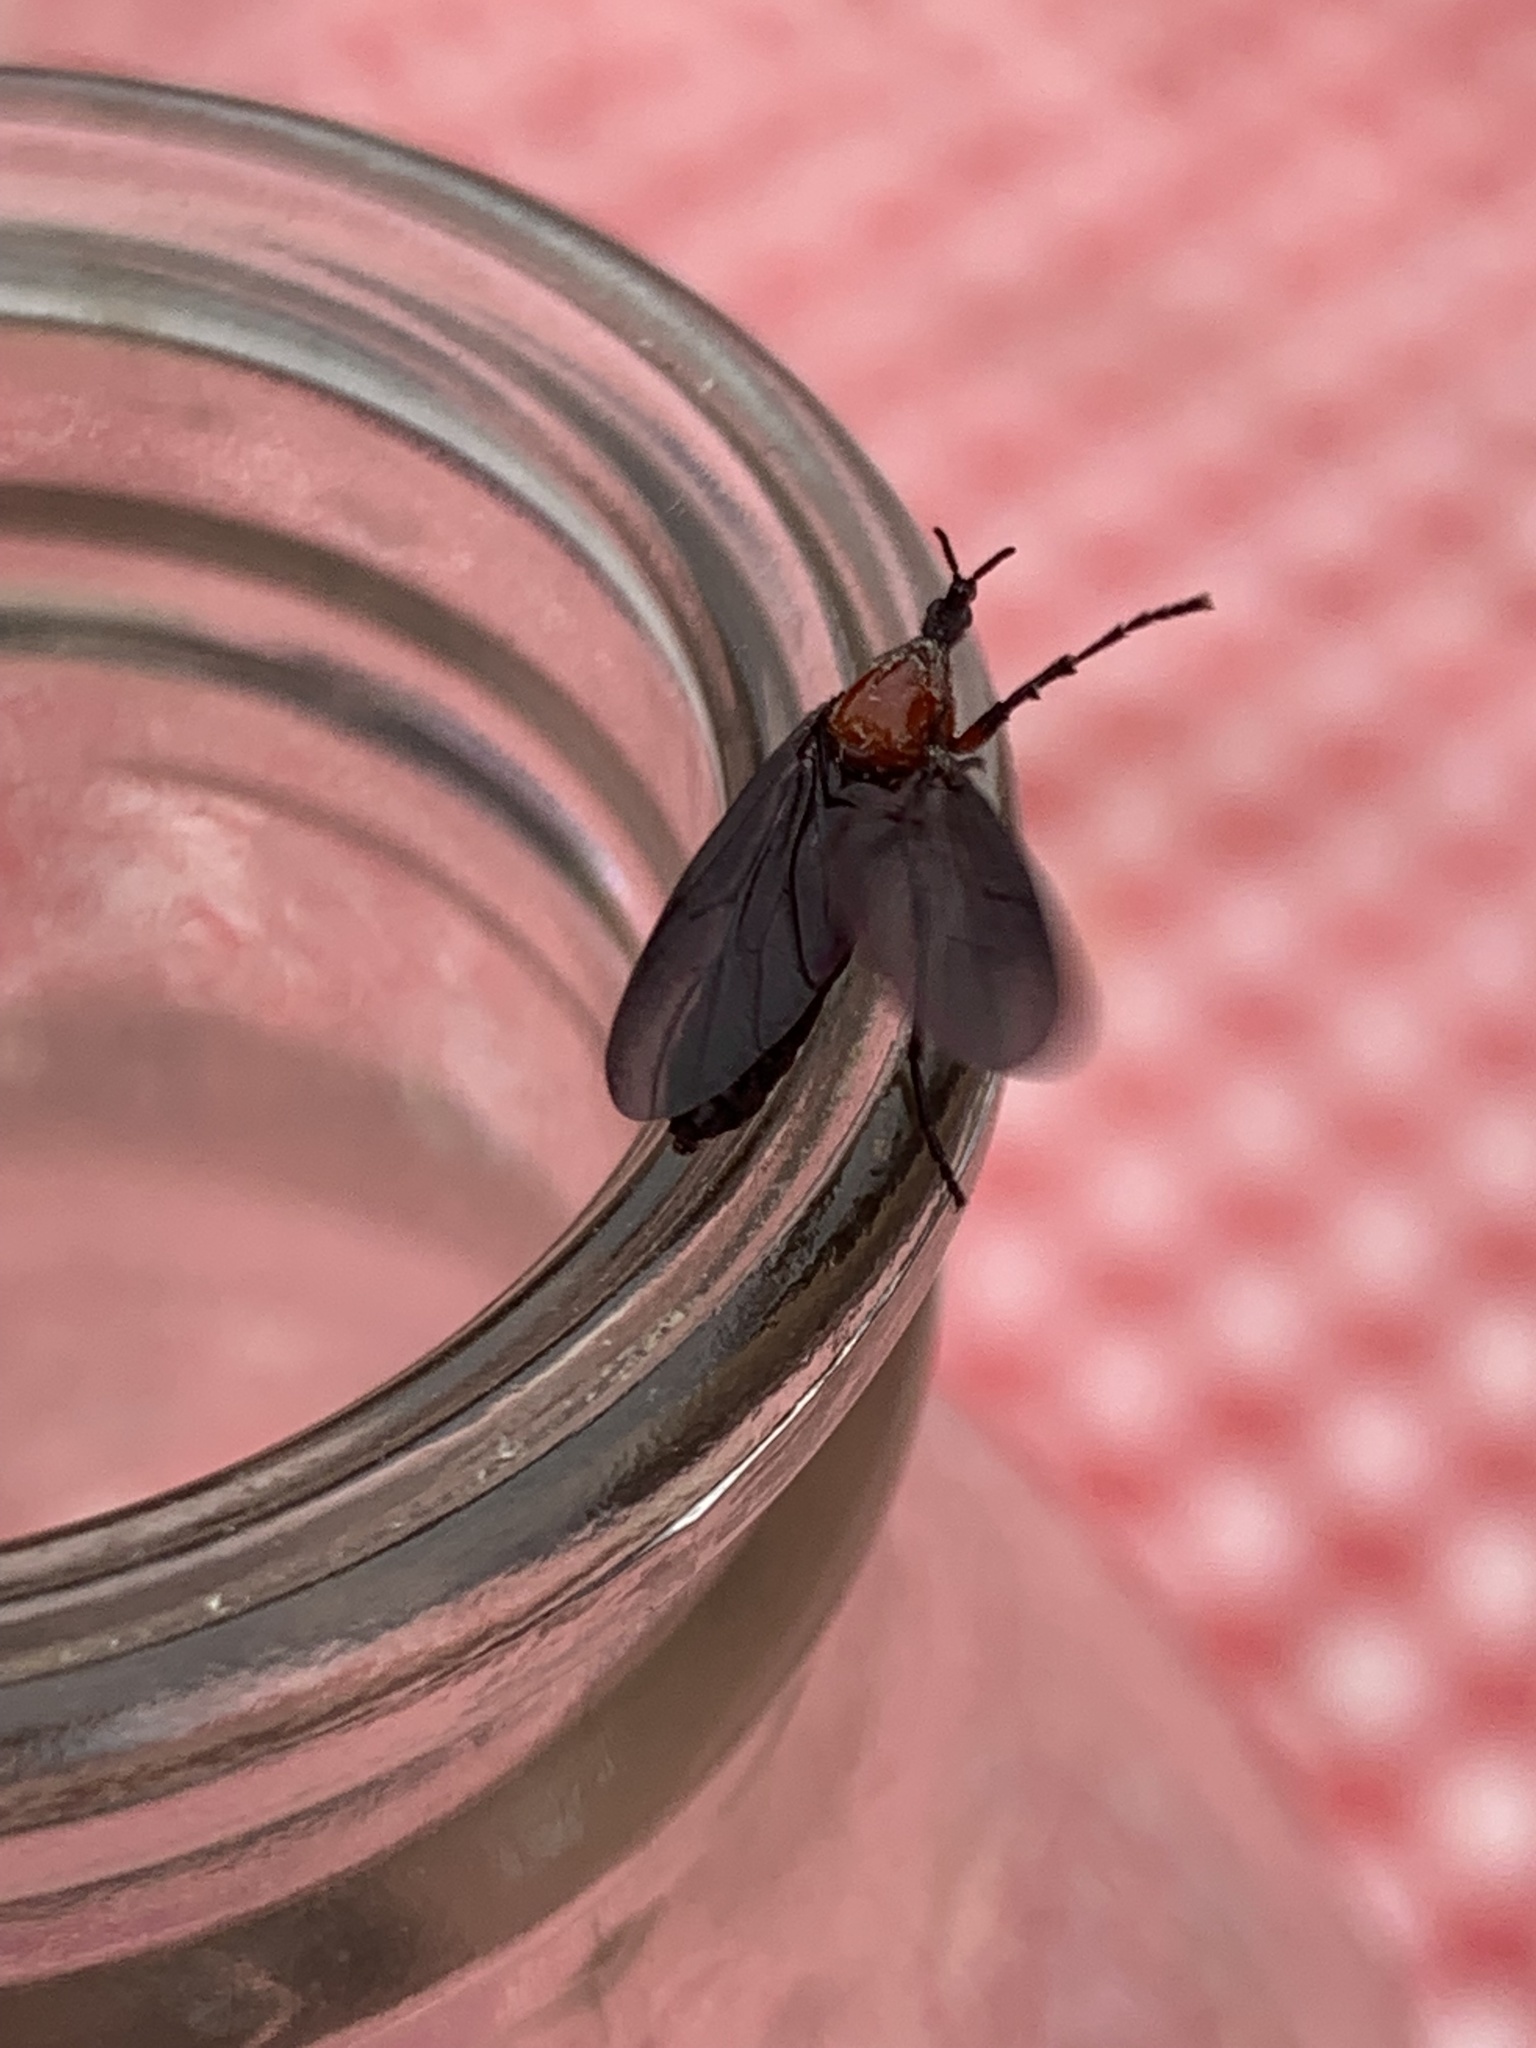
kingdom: Animalia
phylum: Arthropoda
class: Insecta
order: Diptera
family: Bibionidae
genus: Dilophus
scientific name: Dilophus pectoralis
